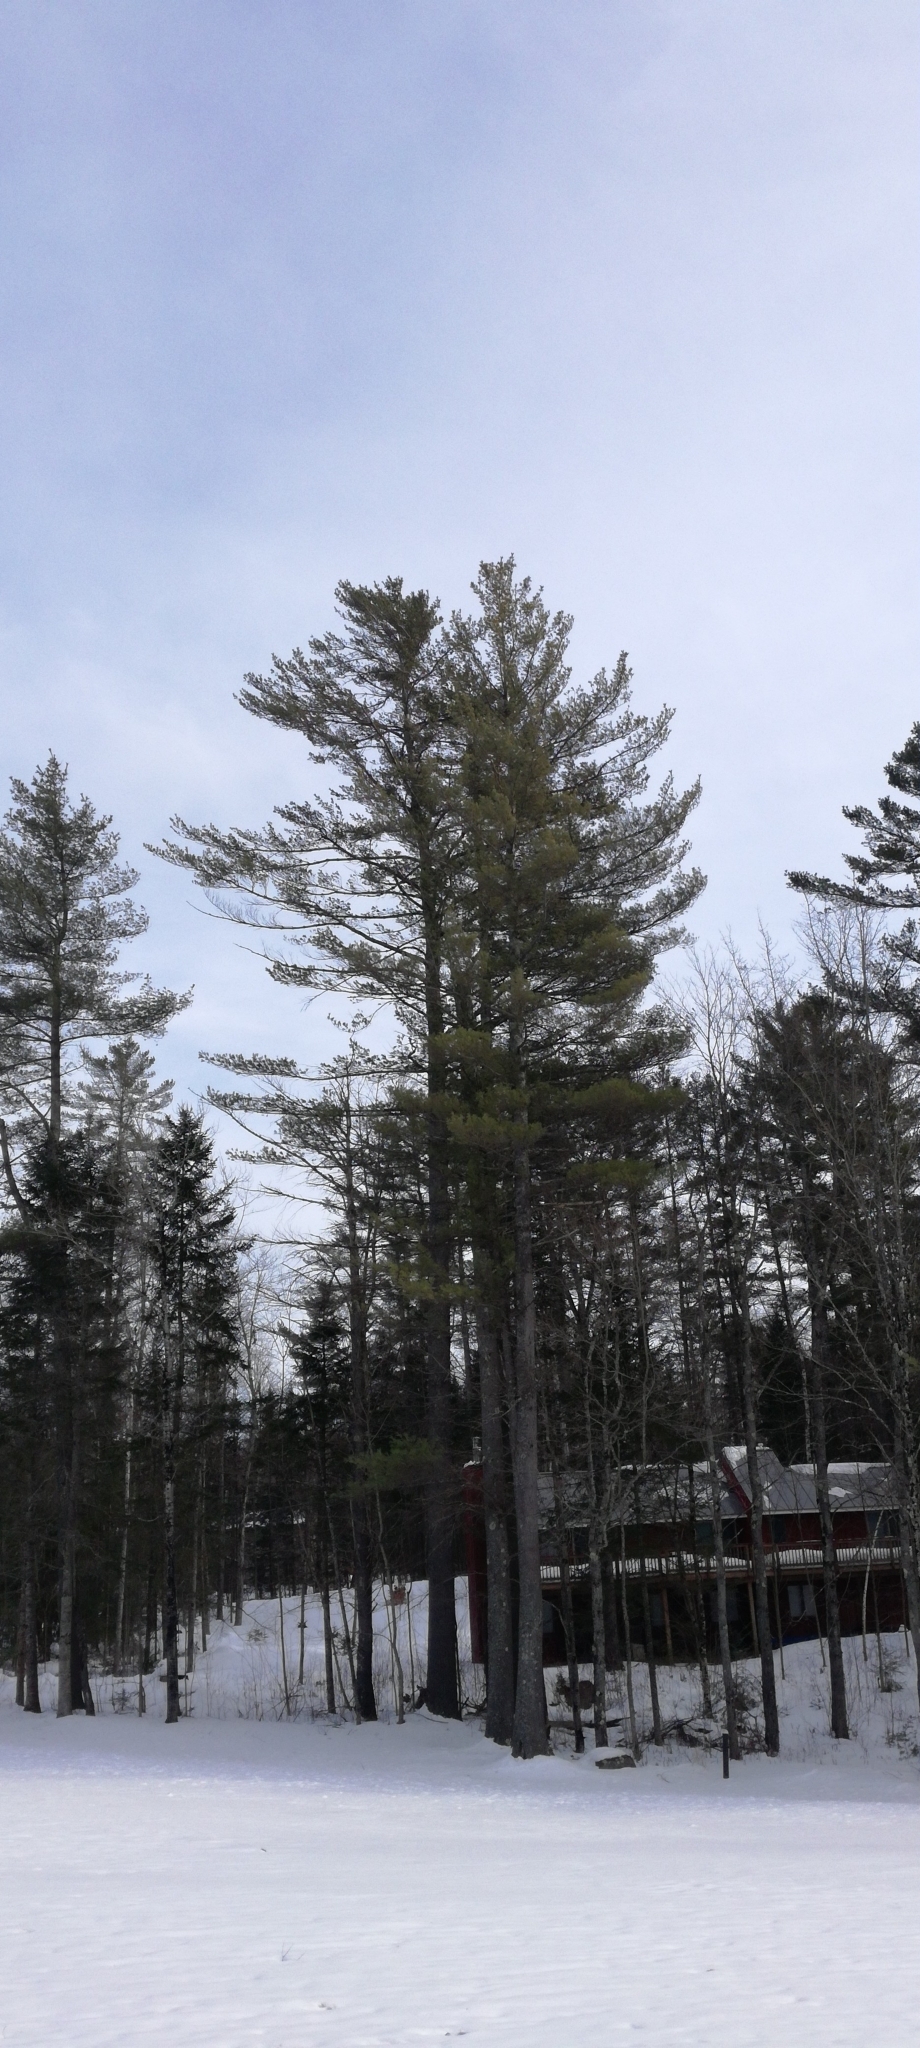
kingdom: Plantae
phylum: Tracheophyta
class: Pinopsida
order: Pinales
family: Pinaceae
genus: Pinus
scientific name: Pinus strobus
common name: Weymouth pine
